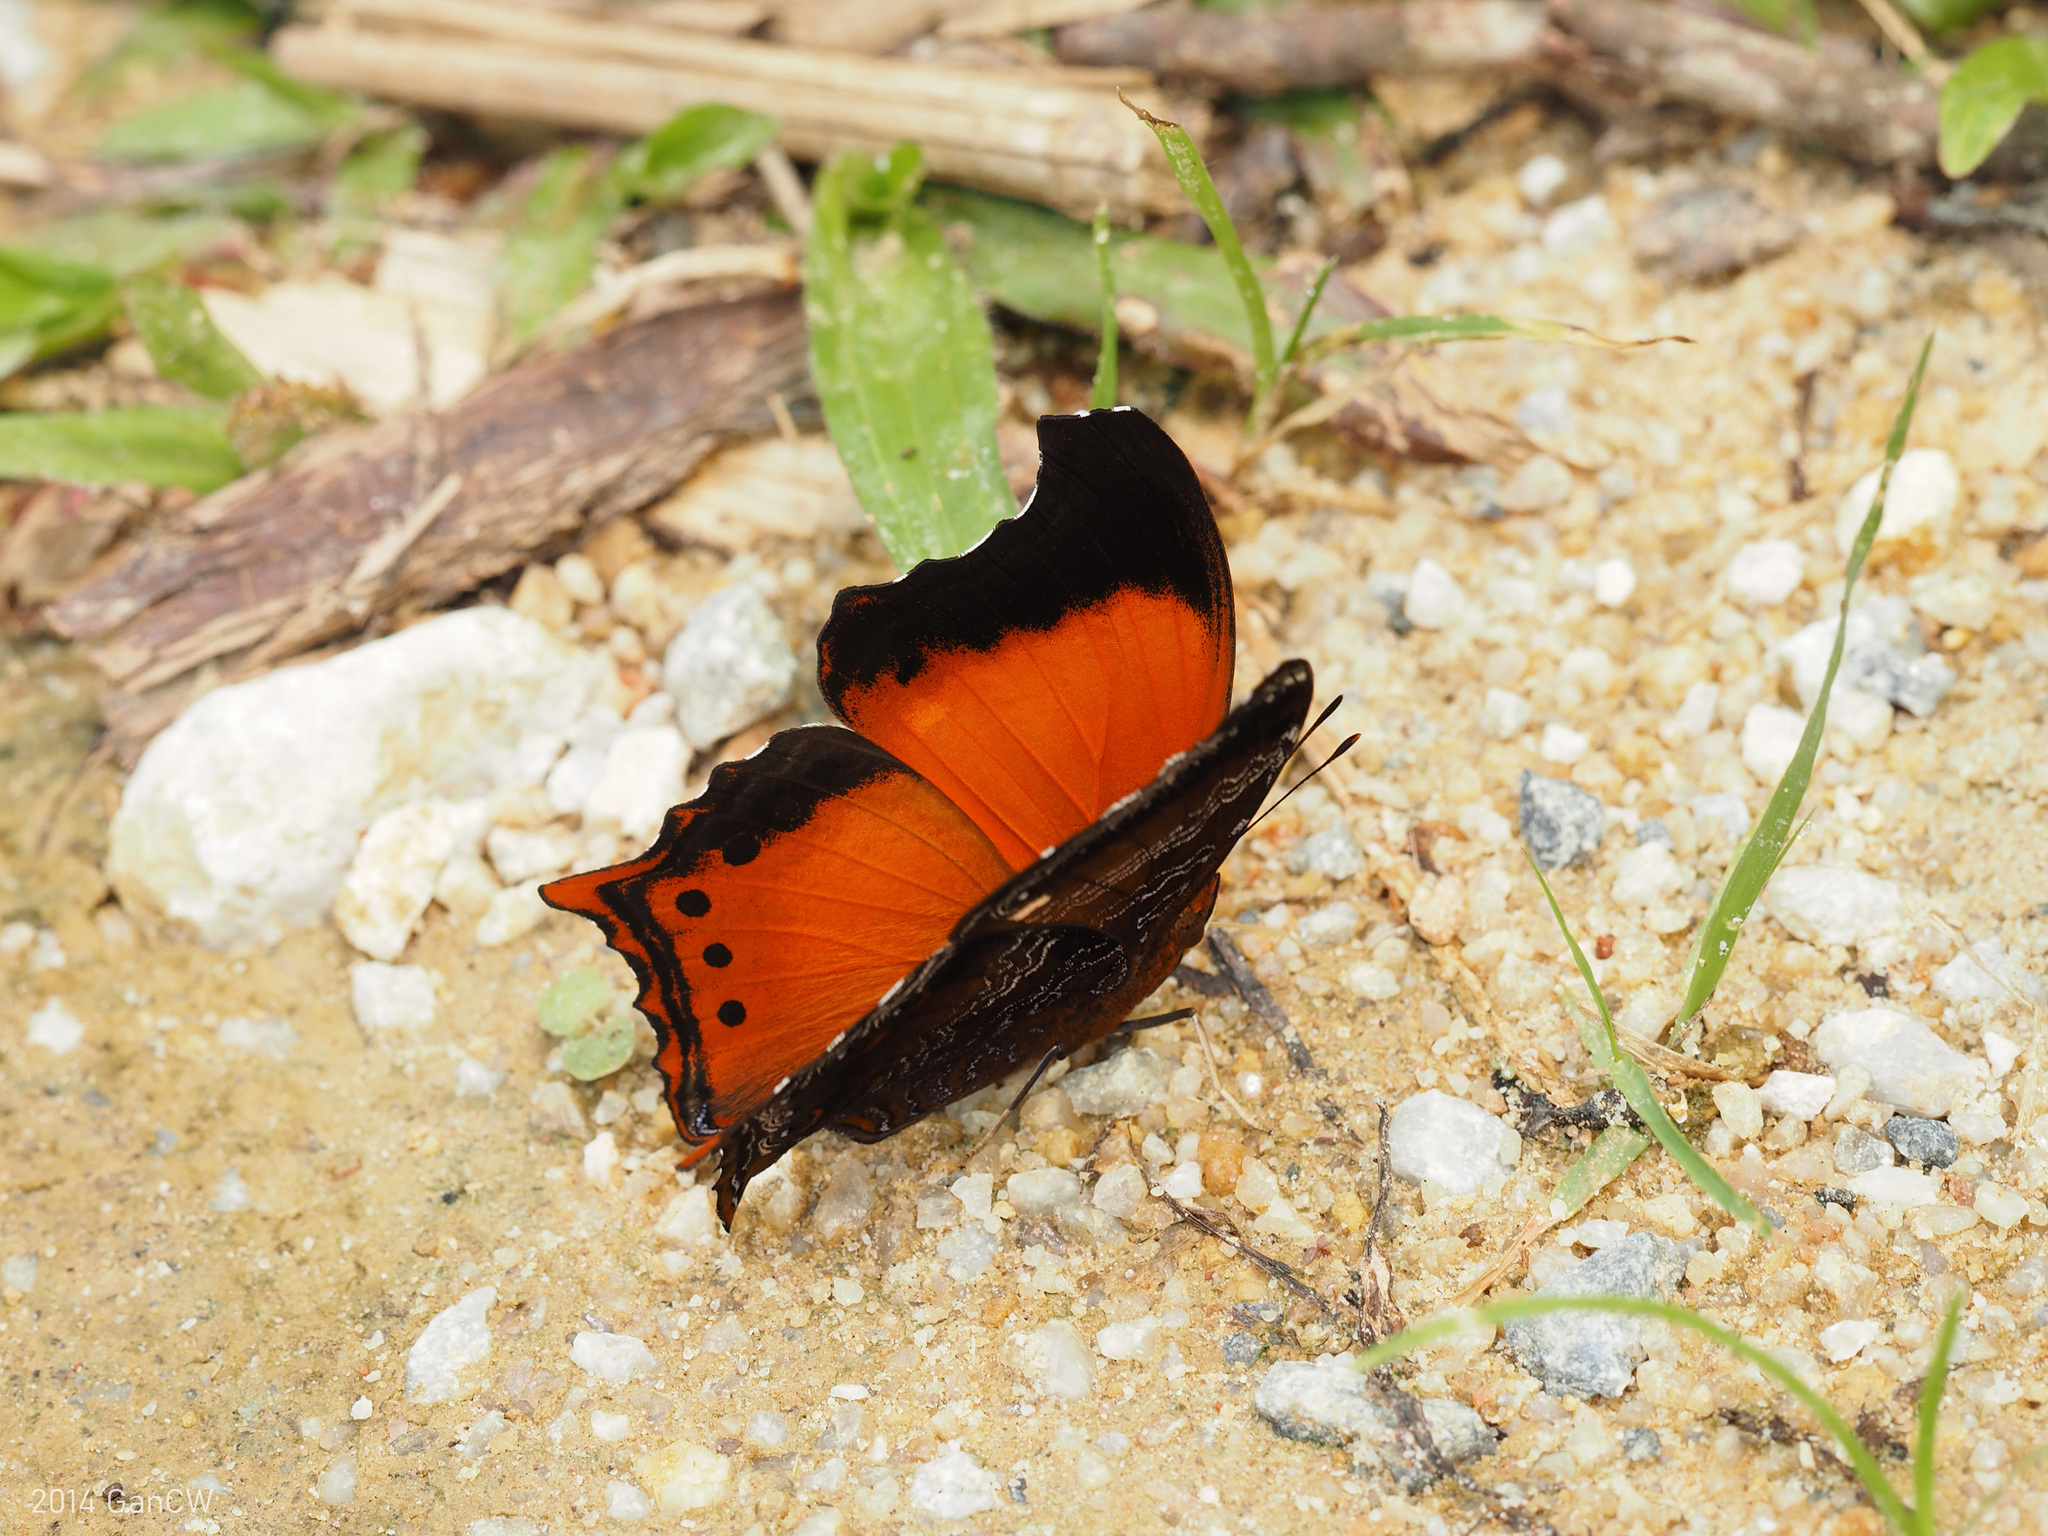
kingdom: Animalia
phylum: Arthropoda
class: Insecta
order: Lepidoptera
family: Nymphalidae
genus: Rhinopalpa
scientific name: Rhinopalpa polynice
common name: Wizard
